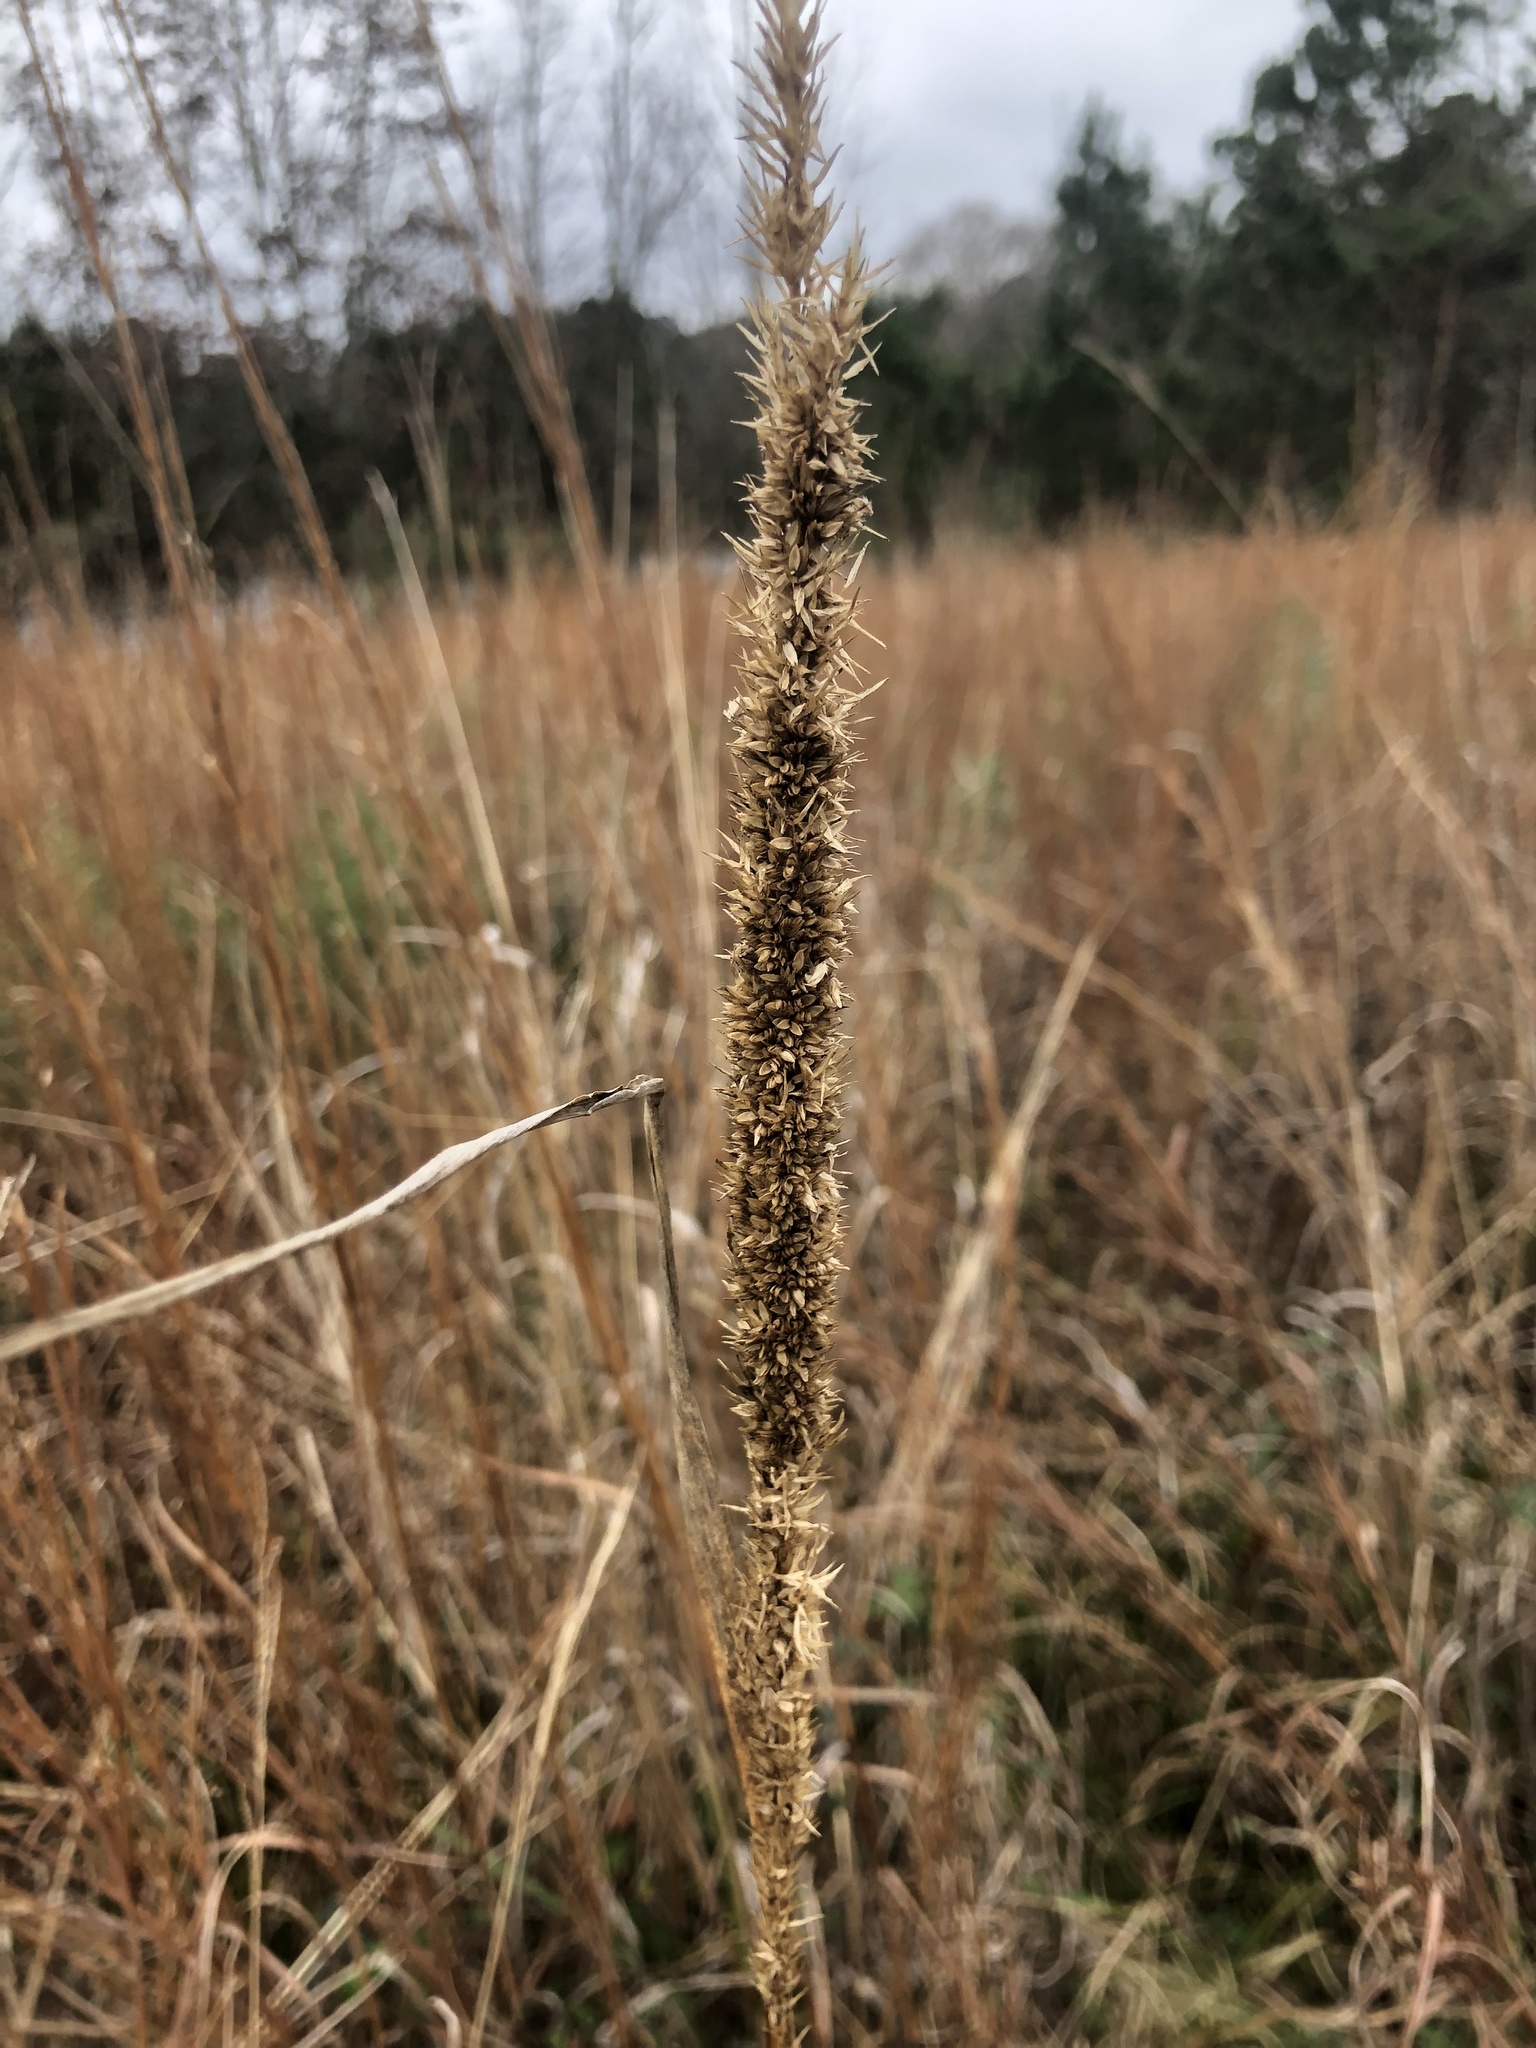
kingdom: Plantae
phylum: Tracheophyta
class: Liliopsida
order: Poales
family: Poaceae
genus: Tridens
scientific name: Tridens strictus
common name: Long-spike tridens
